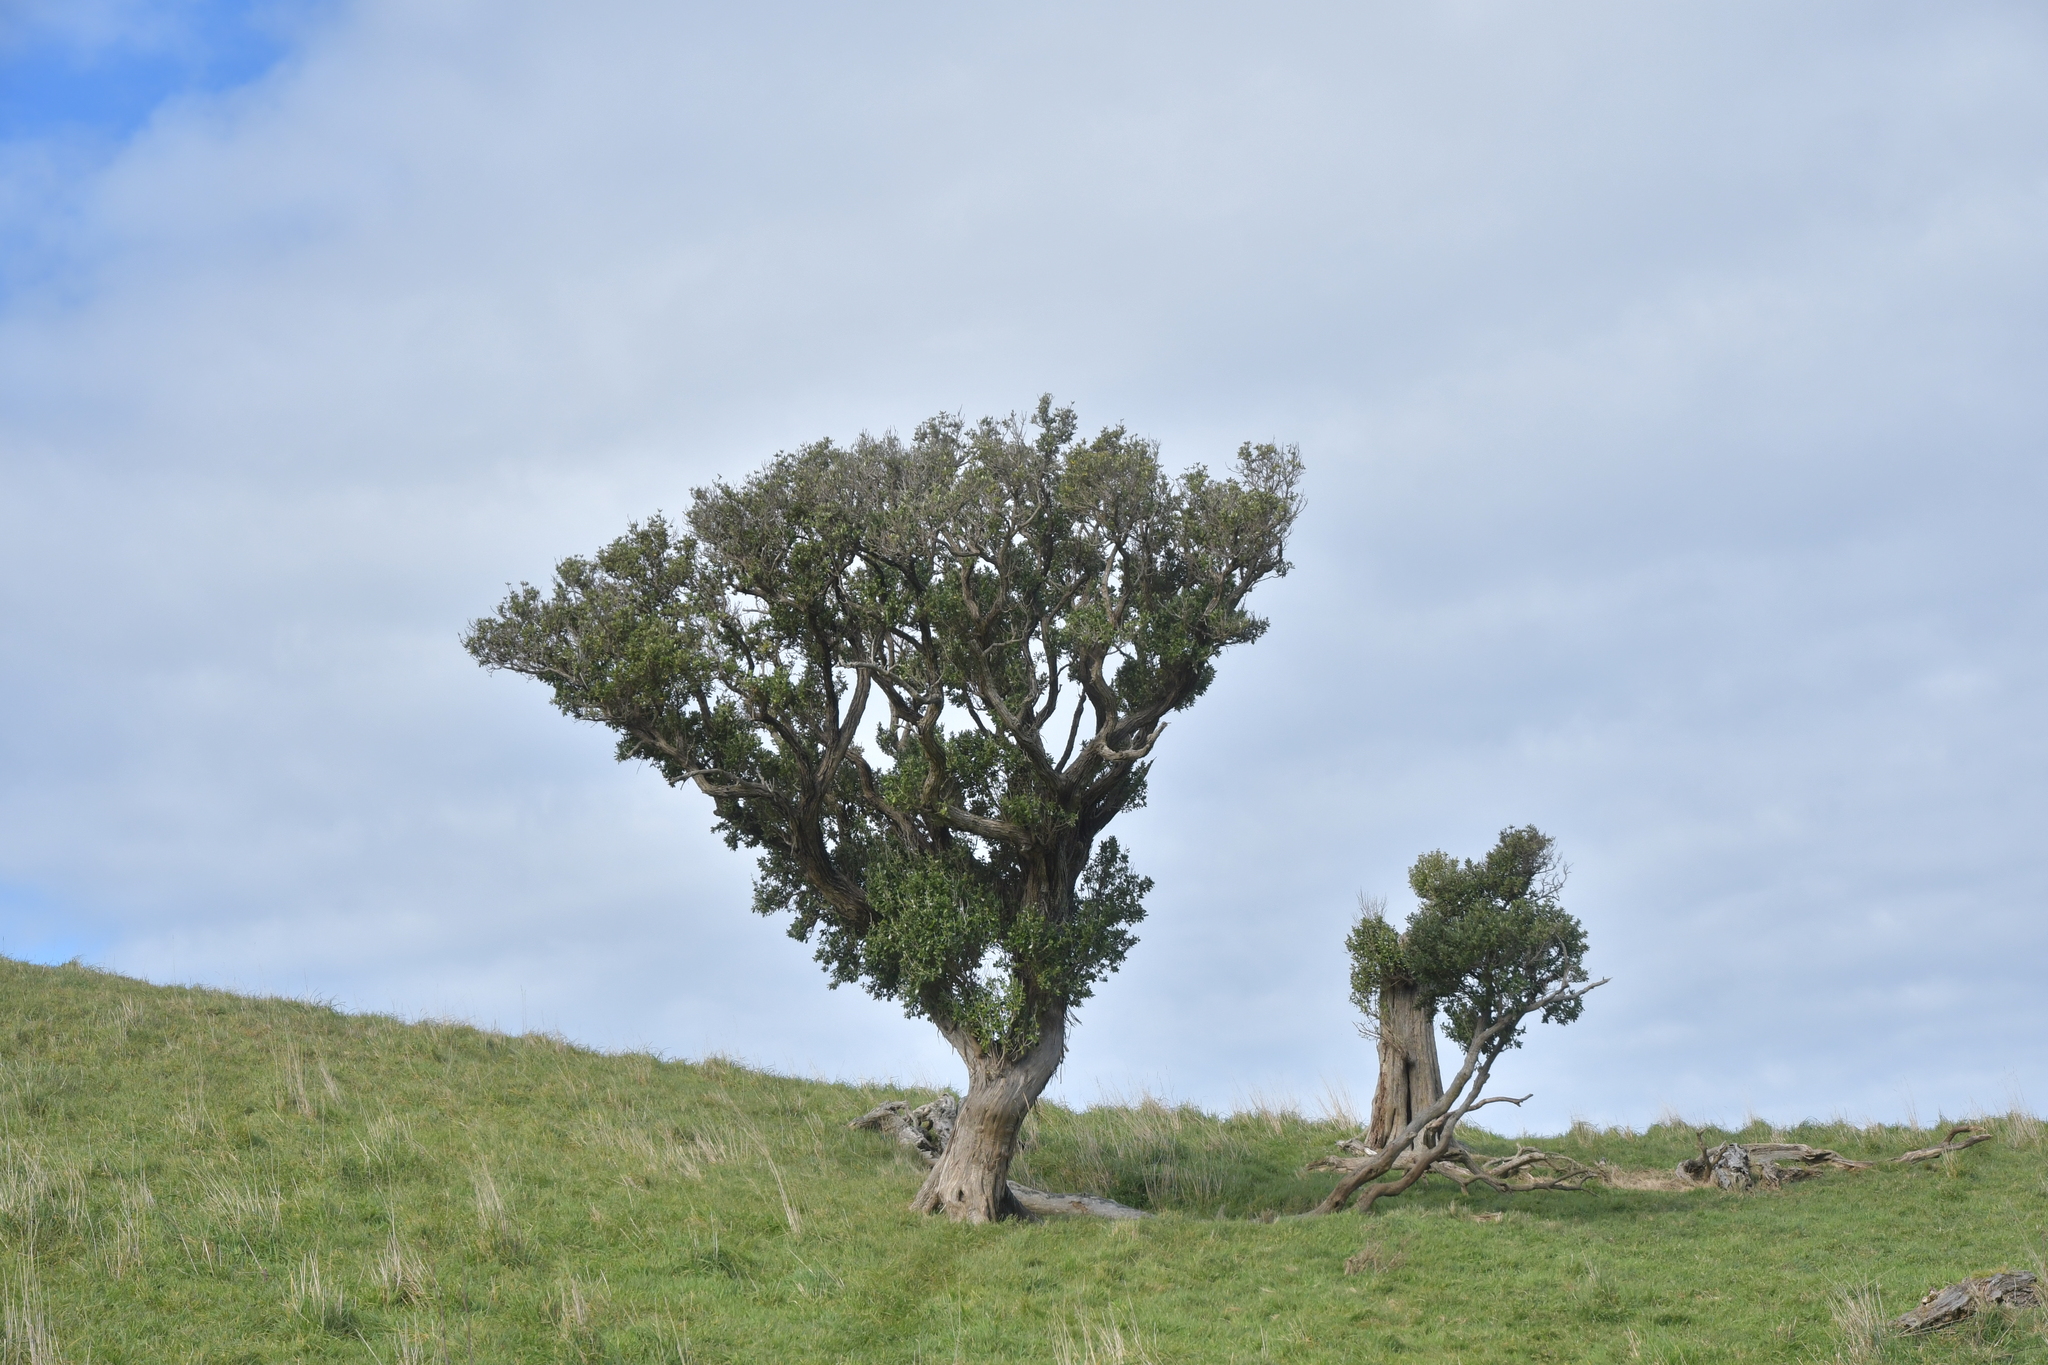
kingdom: Plantae
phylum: Tracheophyta
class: Magnoliopsida
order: Asterales
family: Asteraceae
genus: Olearia
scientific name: Olearia traversiorum
